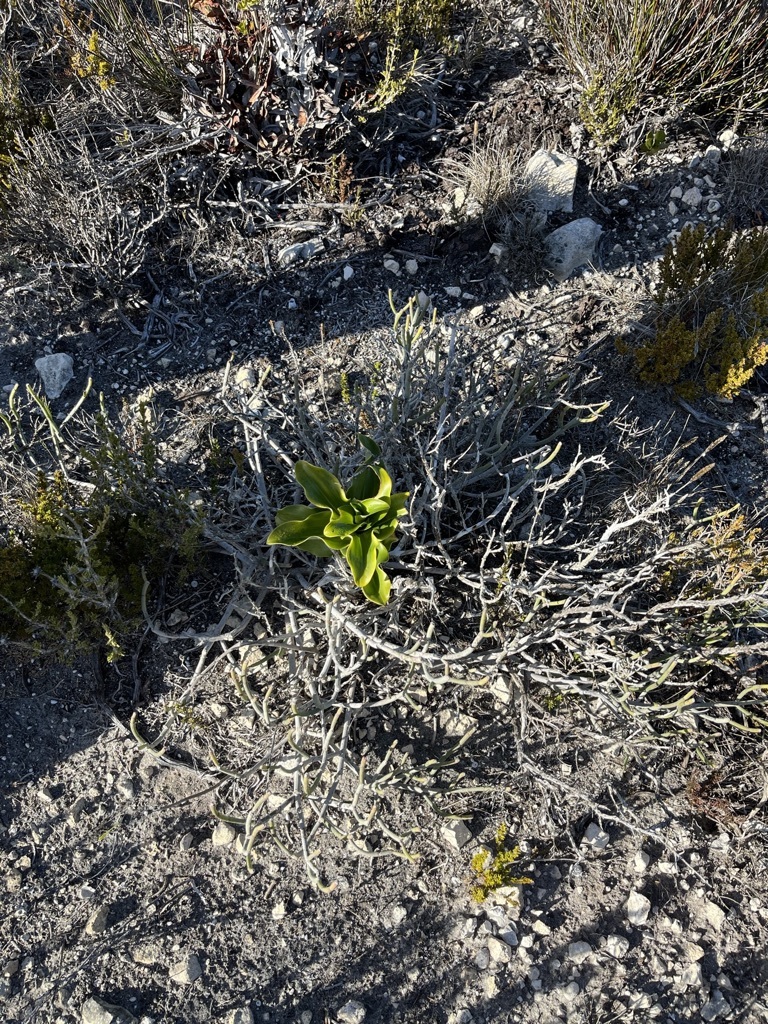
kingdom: Plantae
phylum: Tracheophyta
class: Liliopsida
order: Asparagales
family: Orchidaceae
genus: Bonatea
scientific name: Bonatea speciosa
